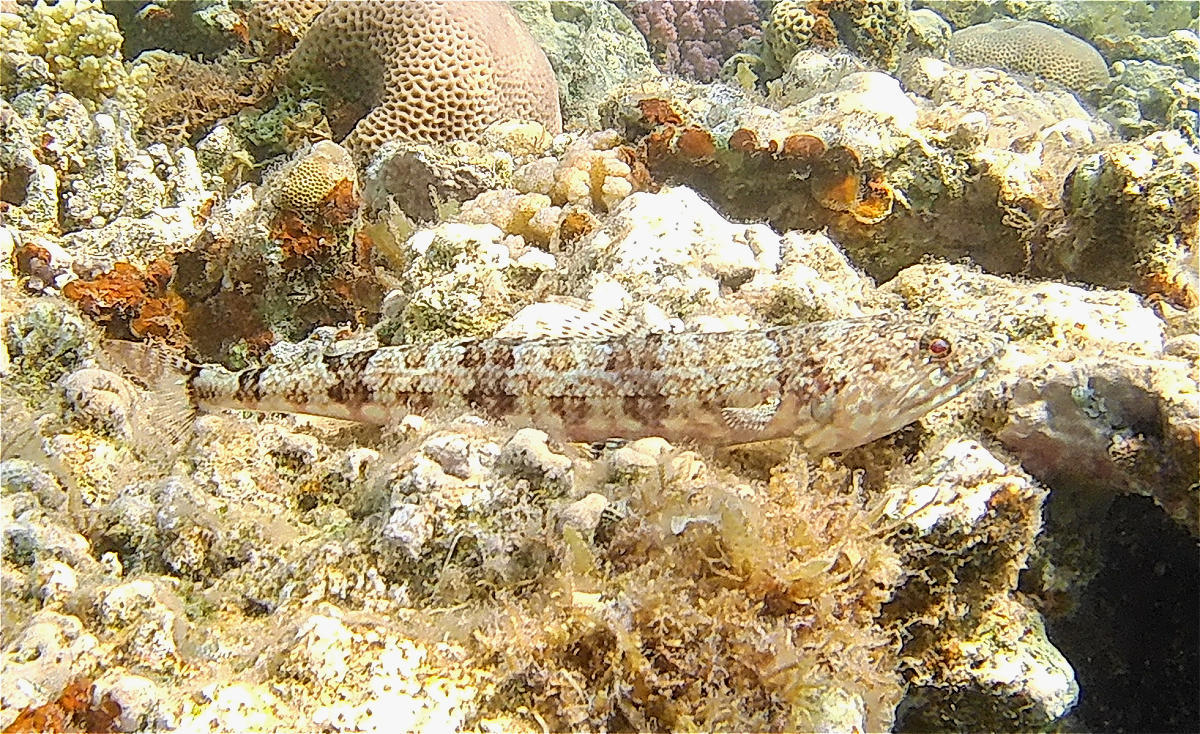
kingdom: Animalia
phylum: Chordata
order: Aulopiformes
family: Synodontidae
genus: Synodus
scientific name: Synodus dermatogenys
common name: Banded lizardfish
